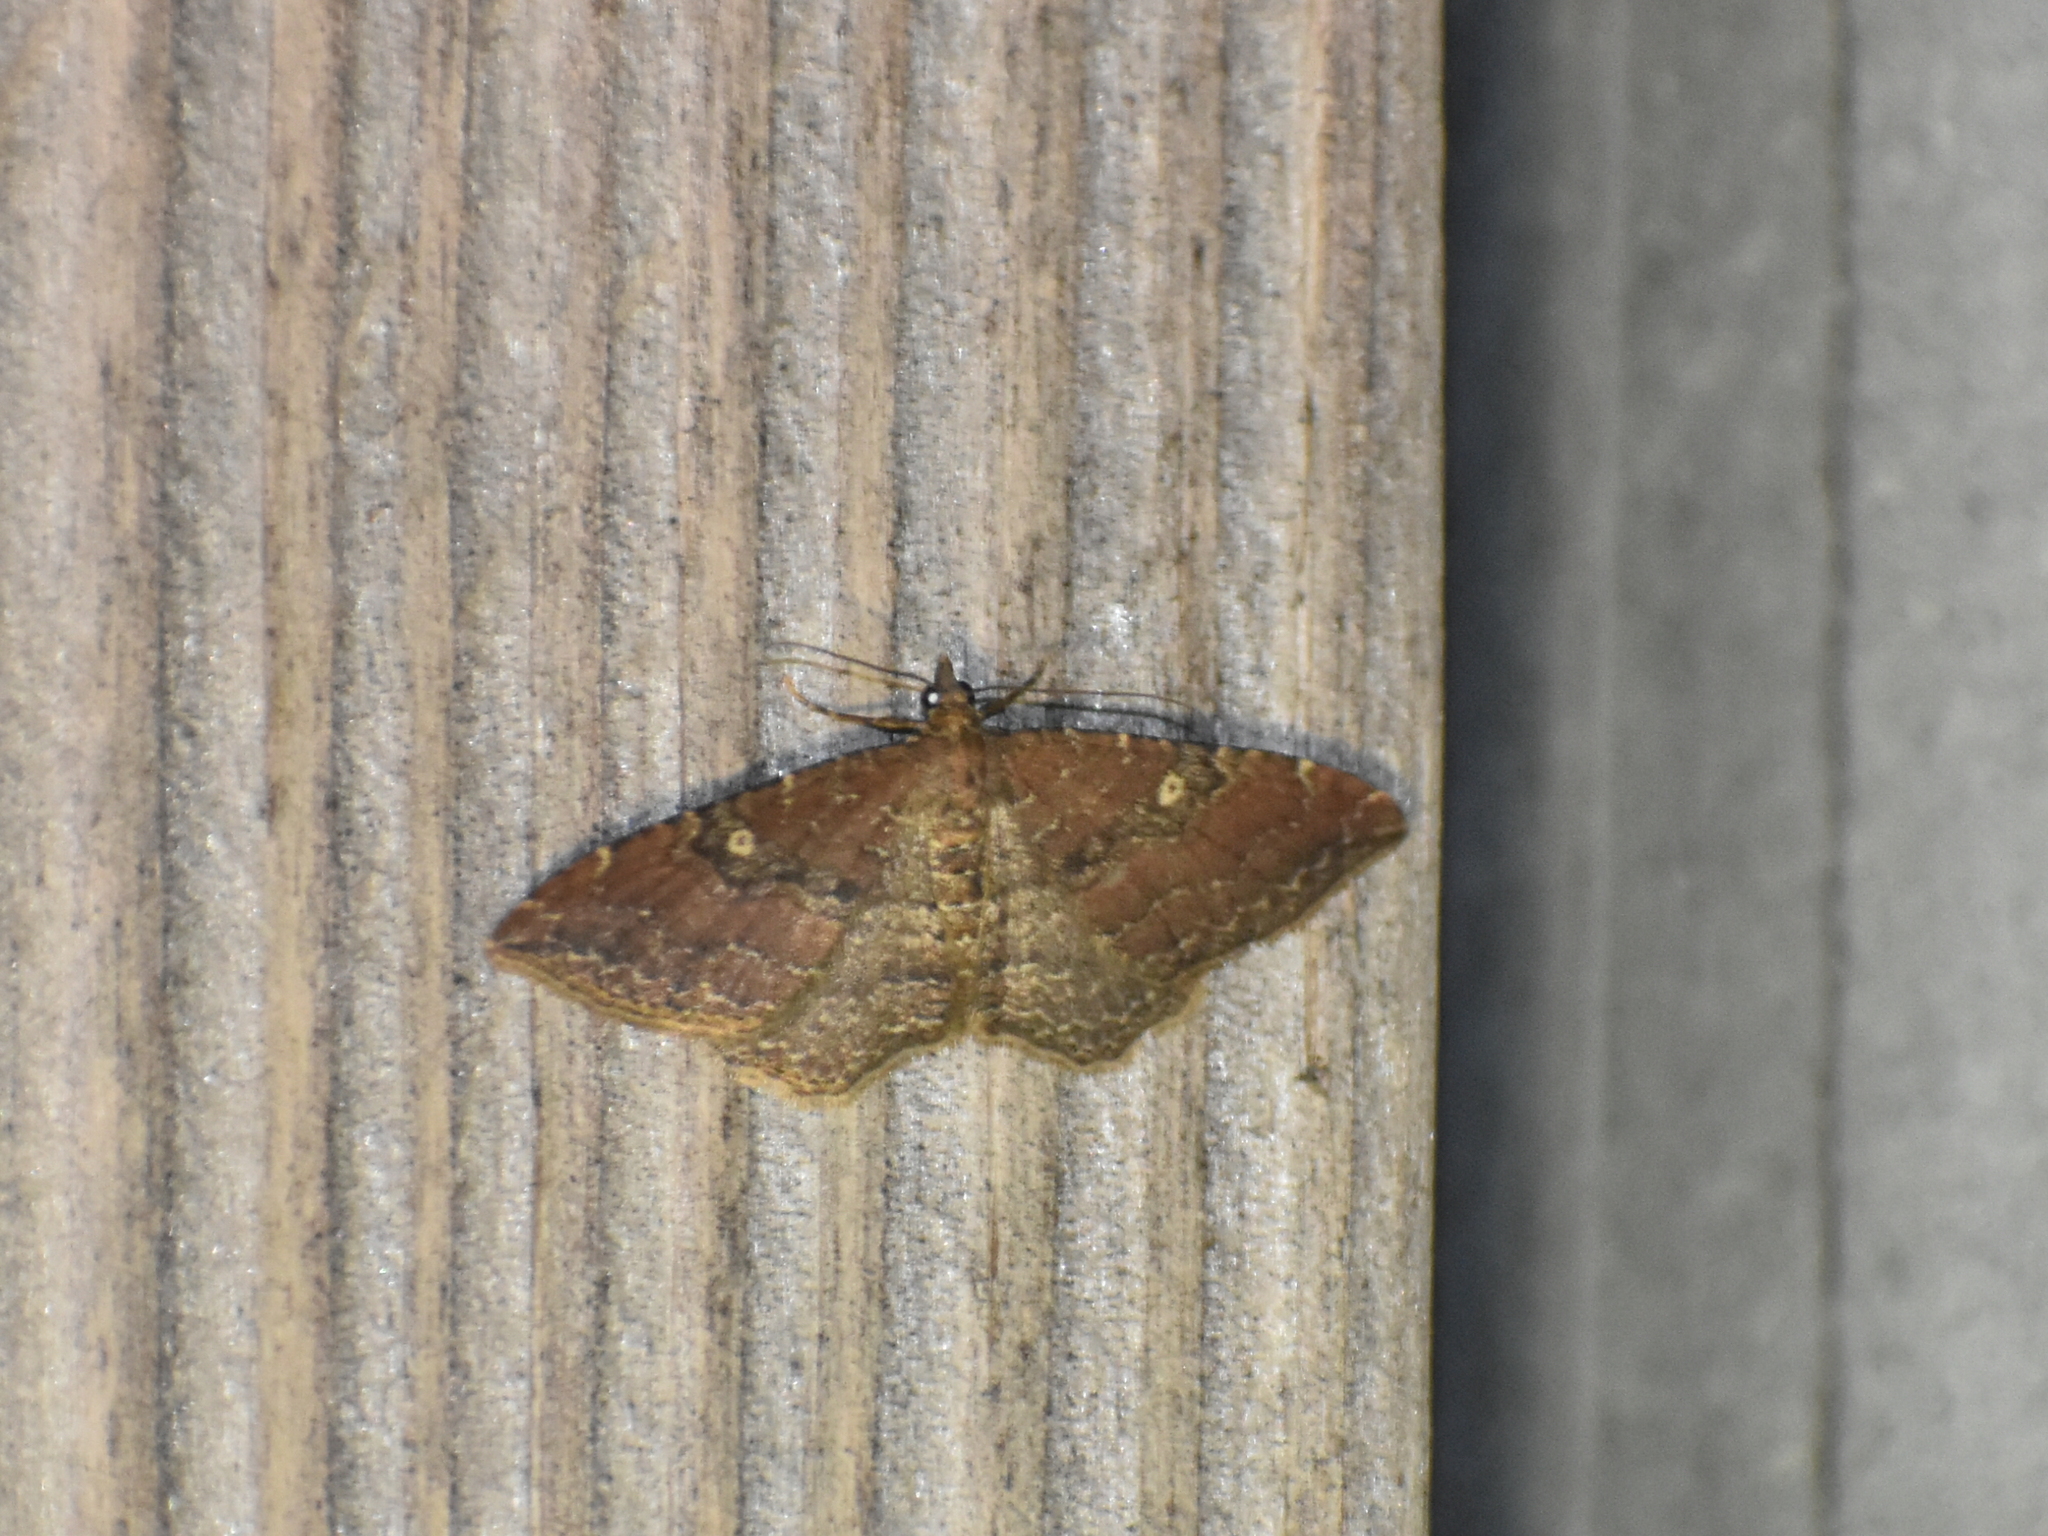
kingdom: Animalia
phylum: Arthropoda
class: Insecta
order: Lepidoptera
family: Geometridae
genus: Orthonama
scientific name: Orthonama obstipata
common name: The gem
